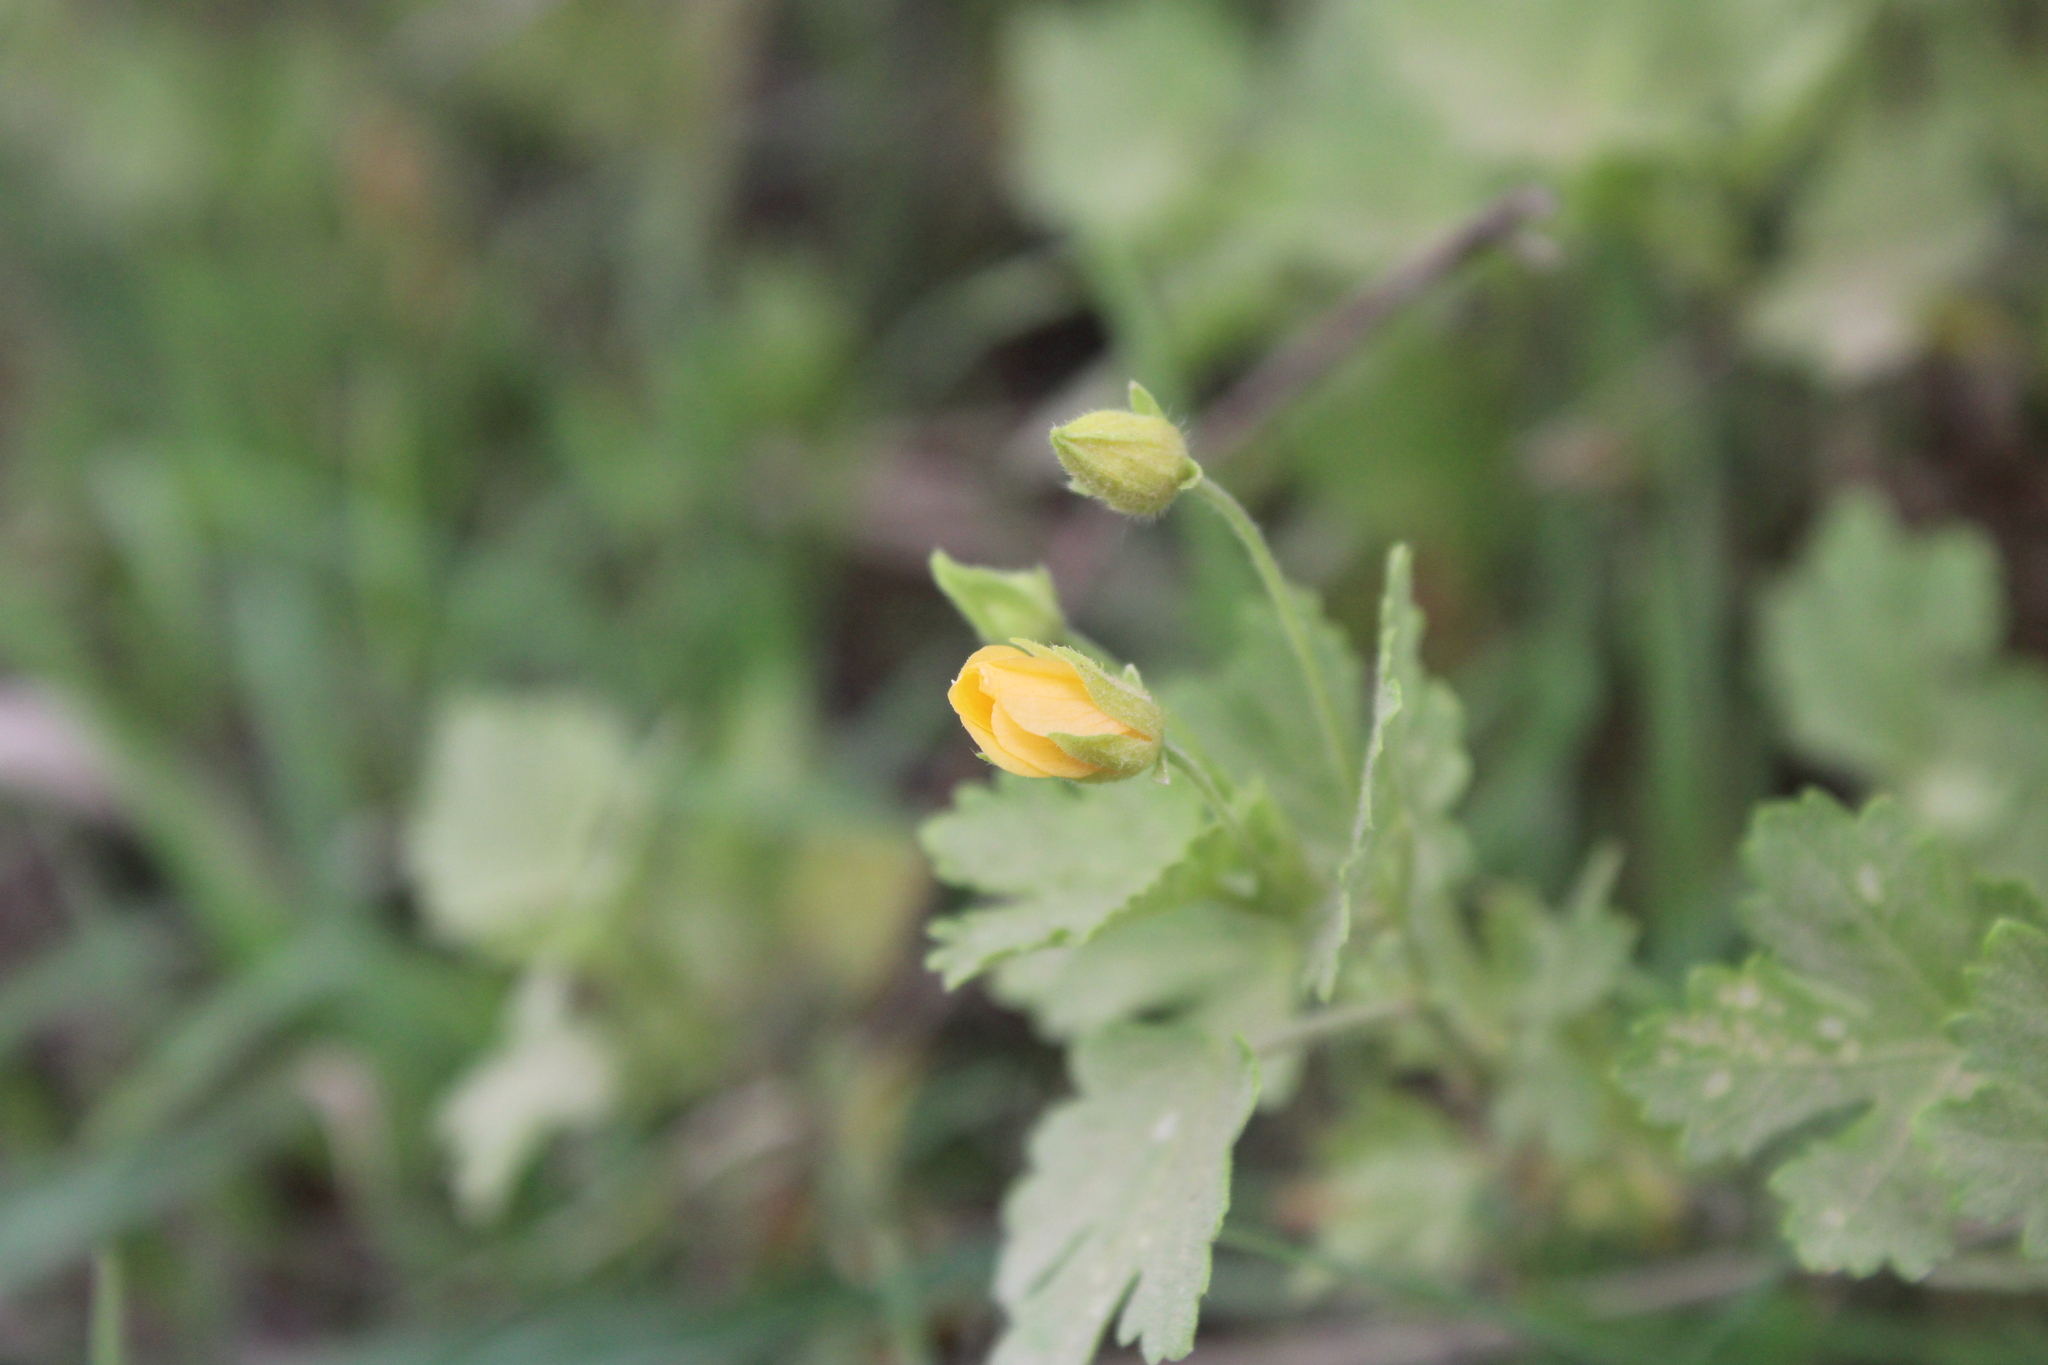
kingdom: Plantae
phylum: Tracheophyta
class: Magnoliopsida
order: Malvales
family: Malvaceae
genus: Modiolastrum
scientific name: Modiolastrum malvifolium
